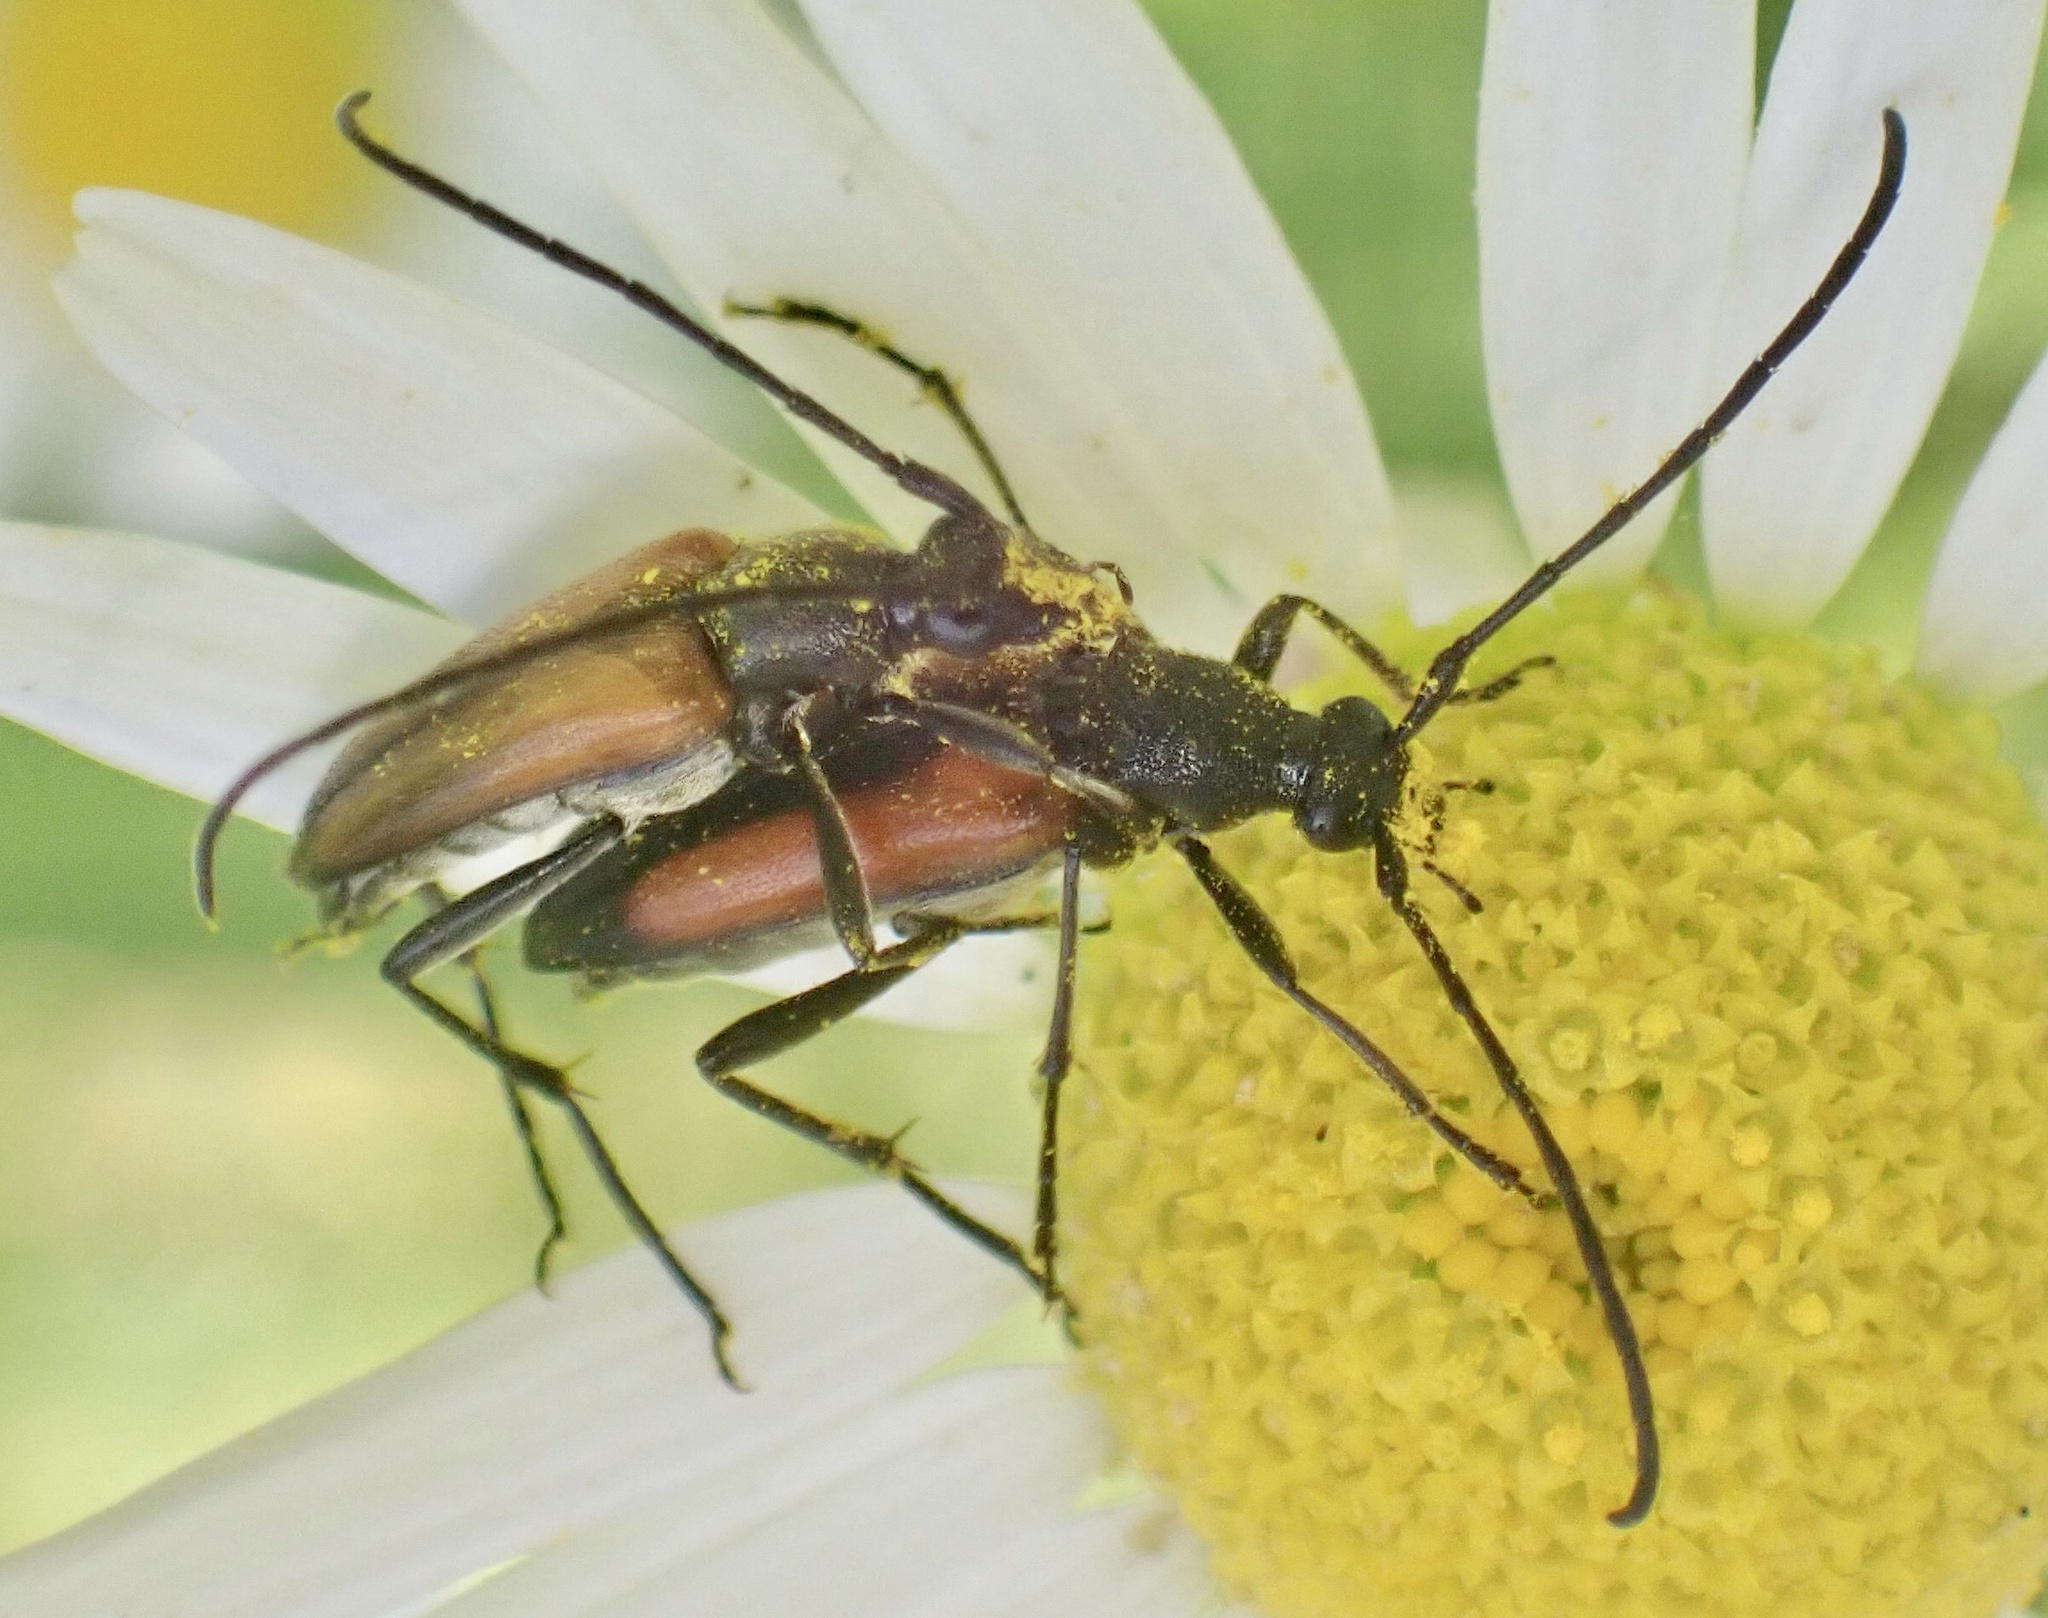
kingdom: Animalia
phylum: Arthropoda
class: Insecta
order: Coleoptera
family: Cerambycidae
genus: Stenurella
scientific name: Stenurella melanura
